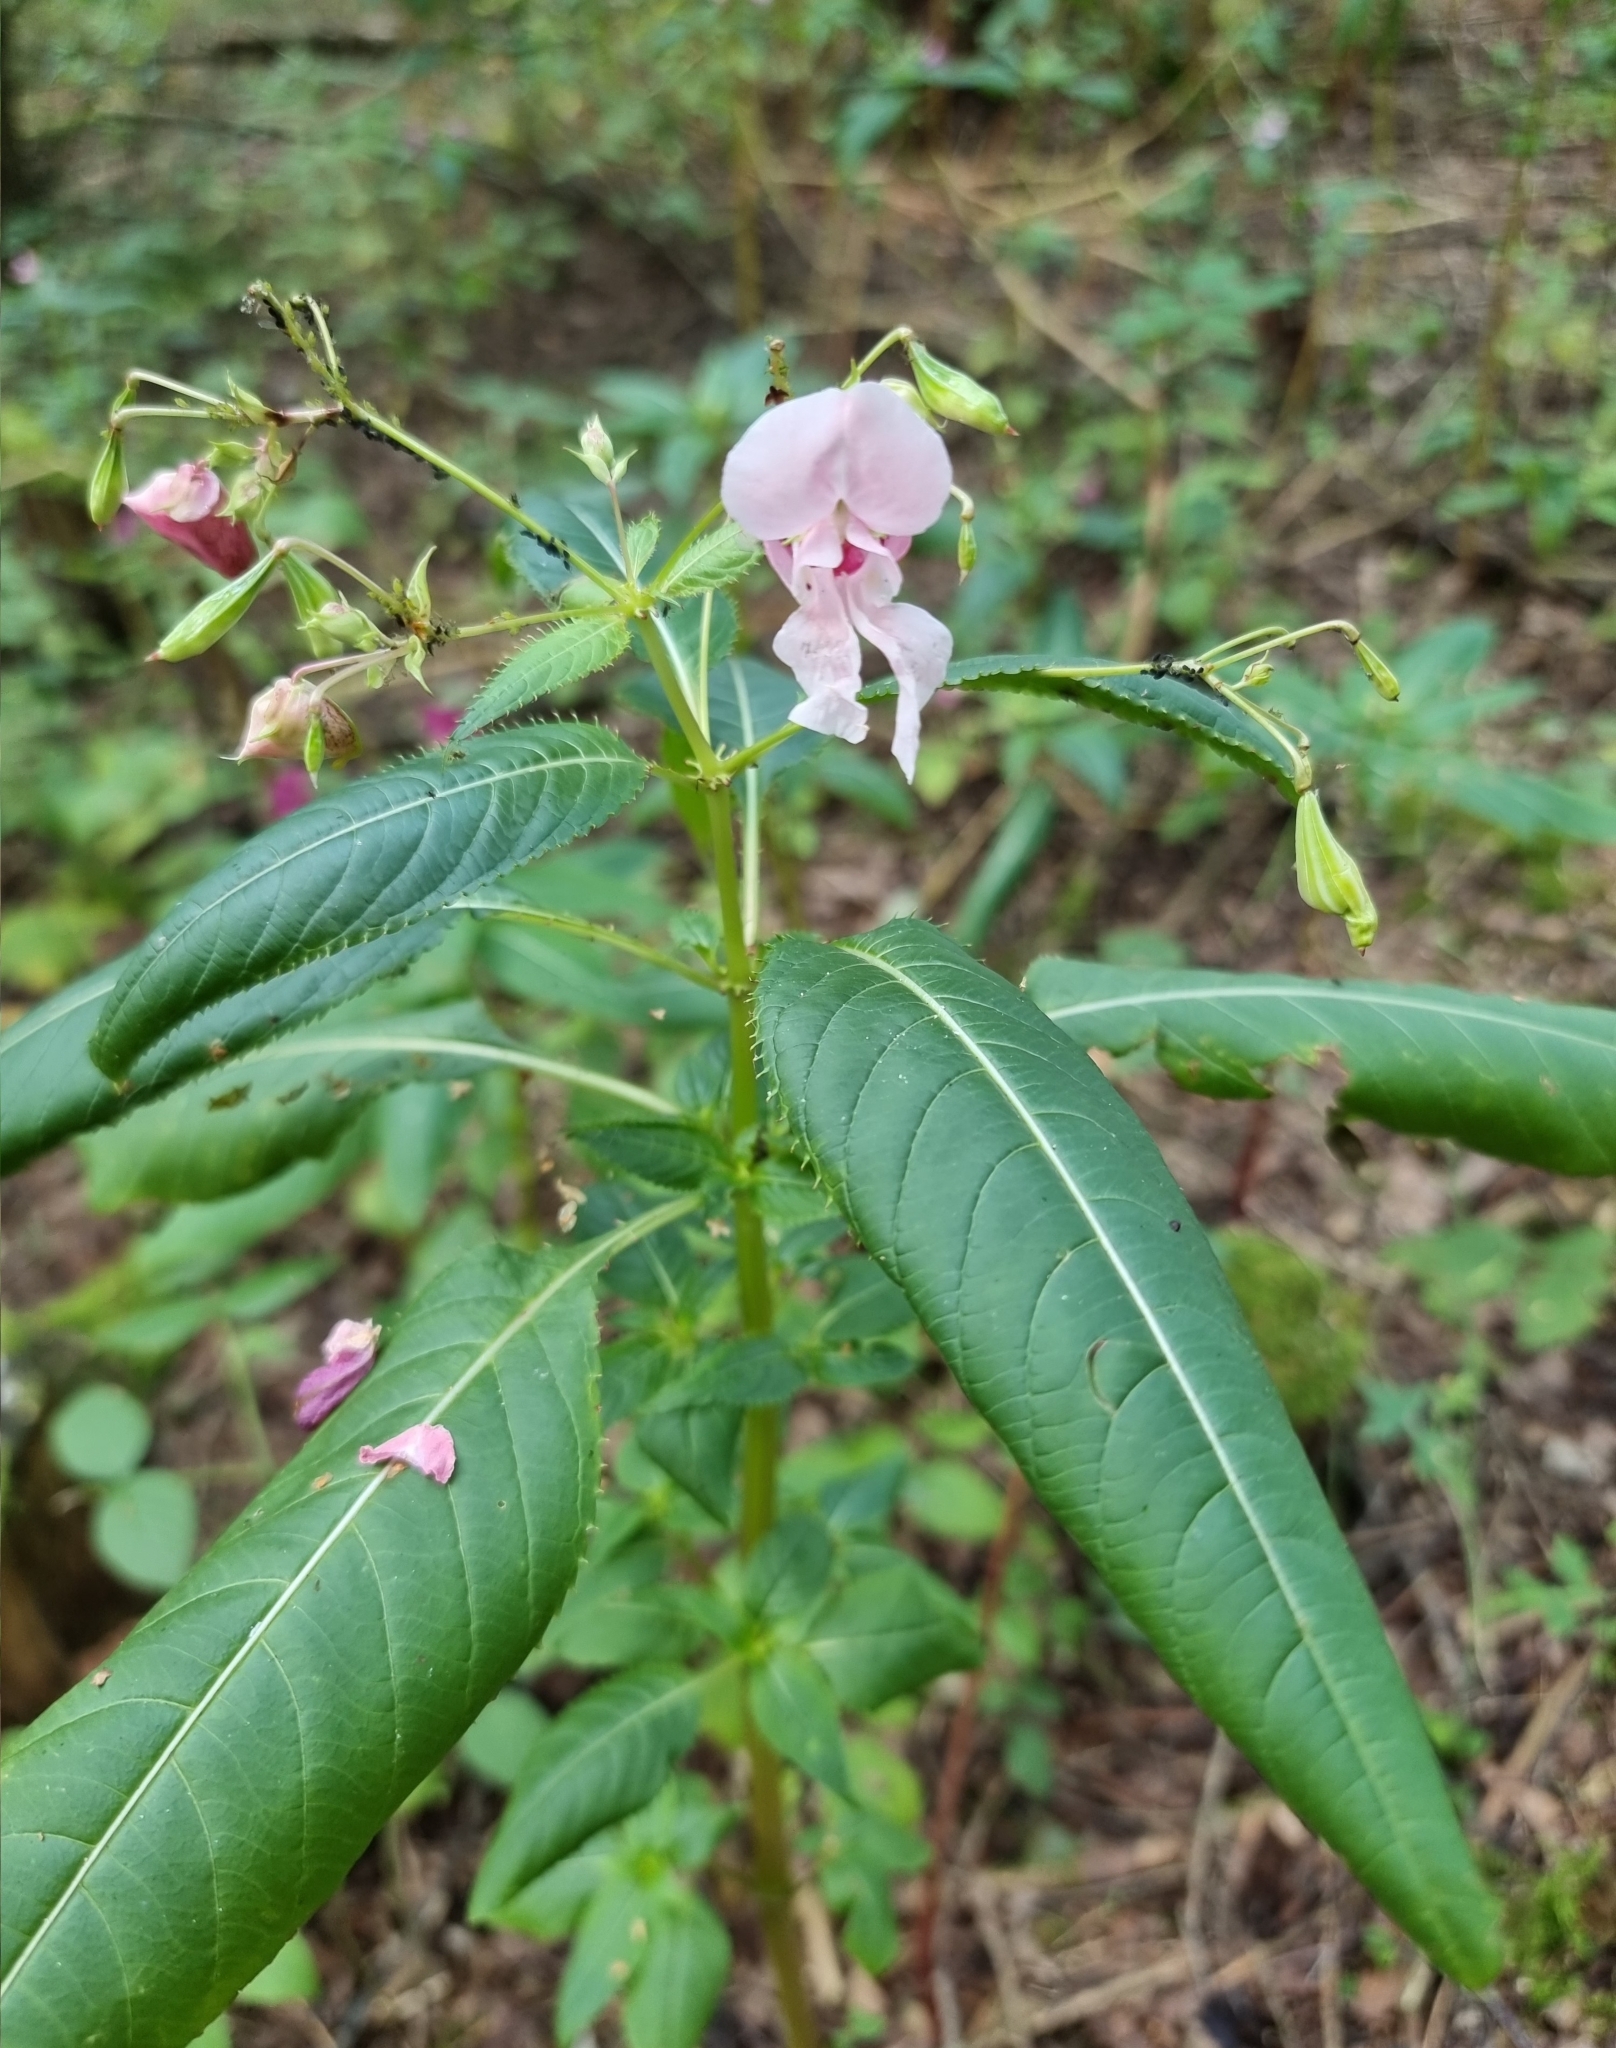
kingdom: Plantae
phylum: Tracheophyta
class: Magnoliopsida
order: Ericales
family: Balsaminaceae
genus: Impatiens
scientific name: Impatiens glandulifera
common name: Himalayan balsam
